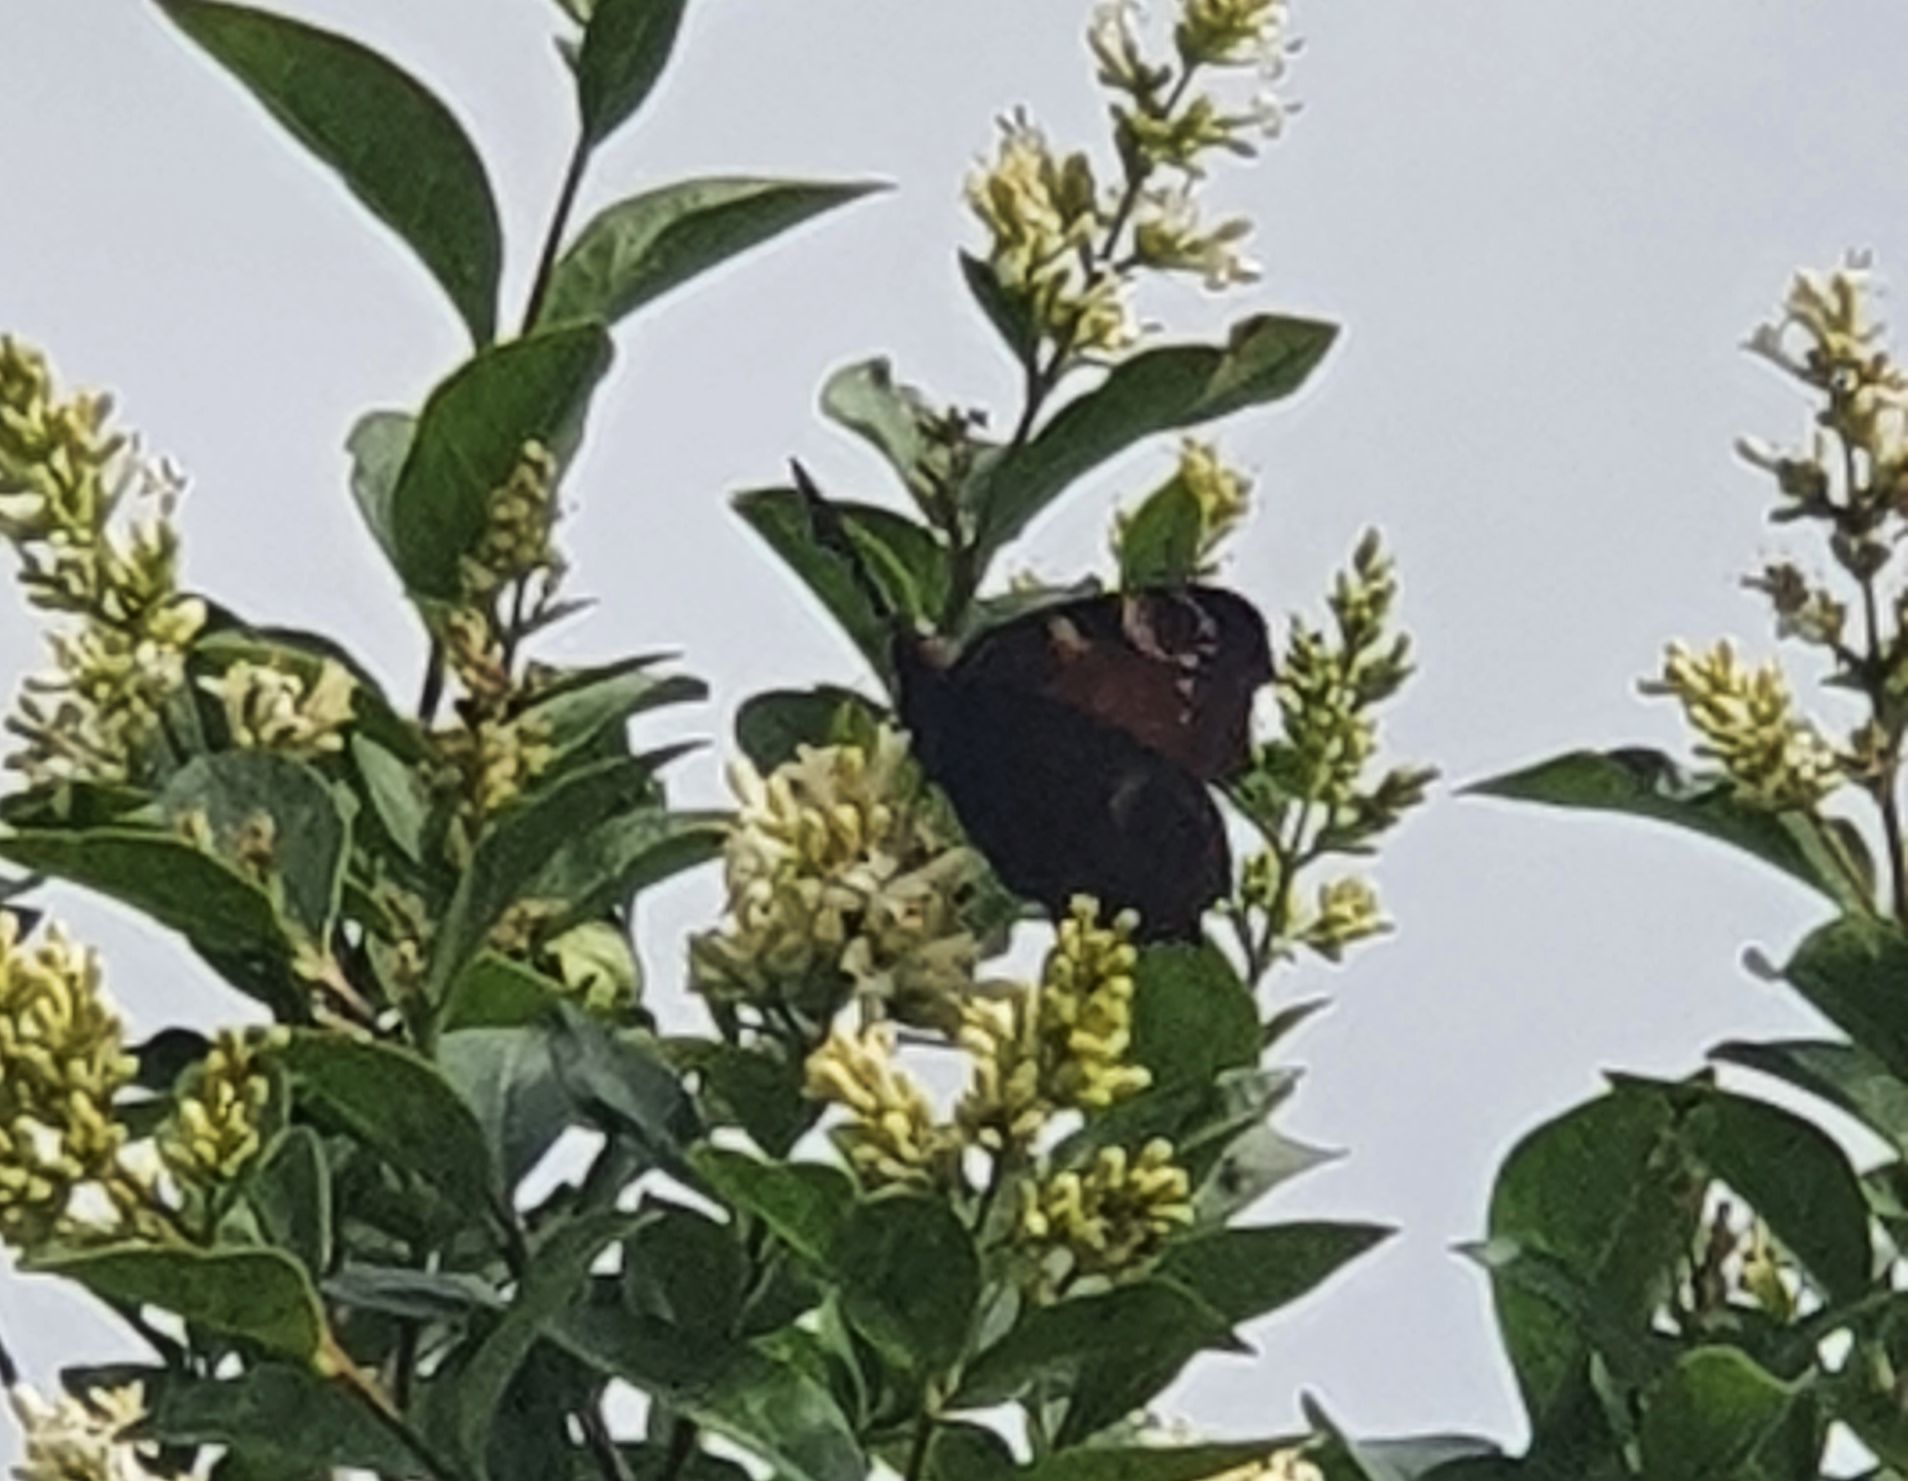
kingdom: Animalia
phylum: Arthropoda
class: Insecta
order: Lepidoptera
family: Nymphalidae
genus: Aglais
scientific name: Aglais io
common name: Peacock
